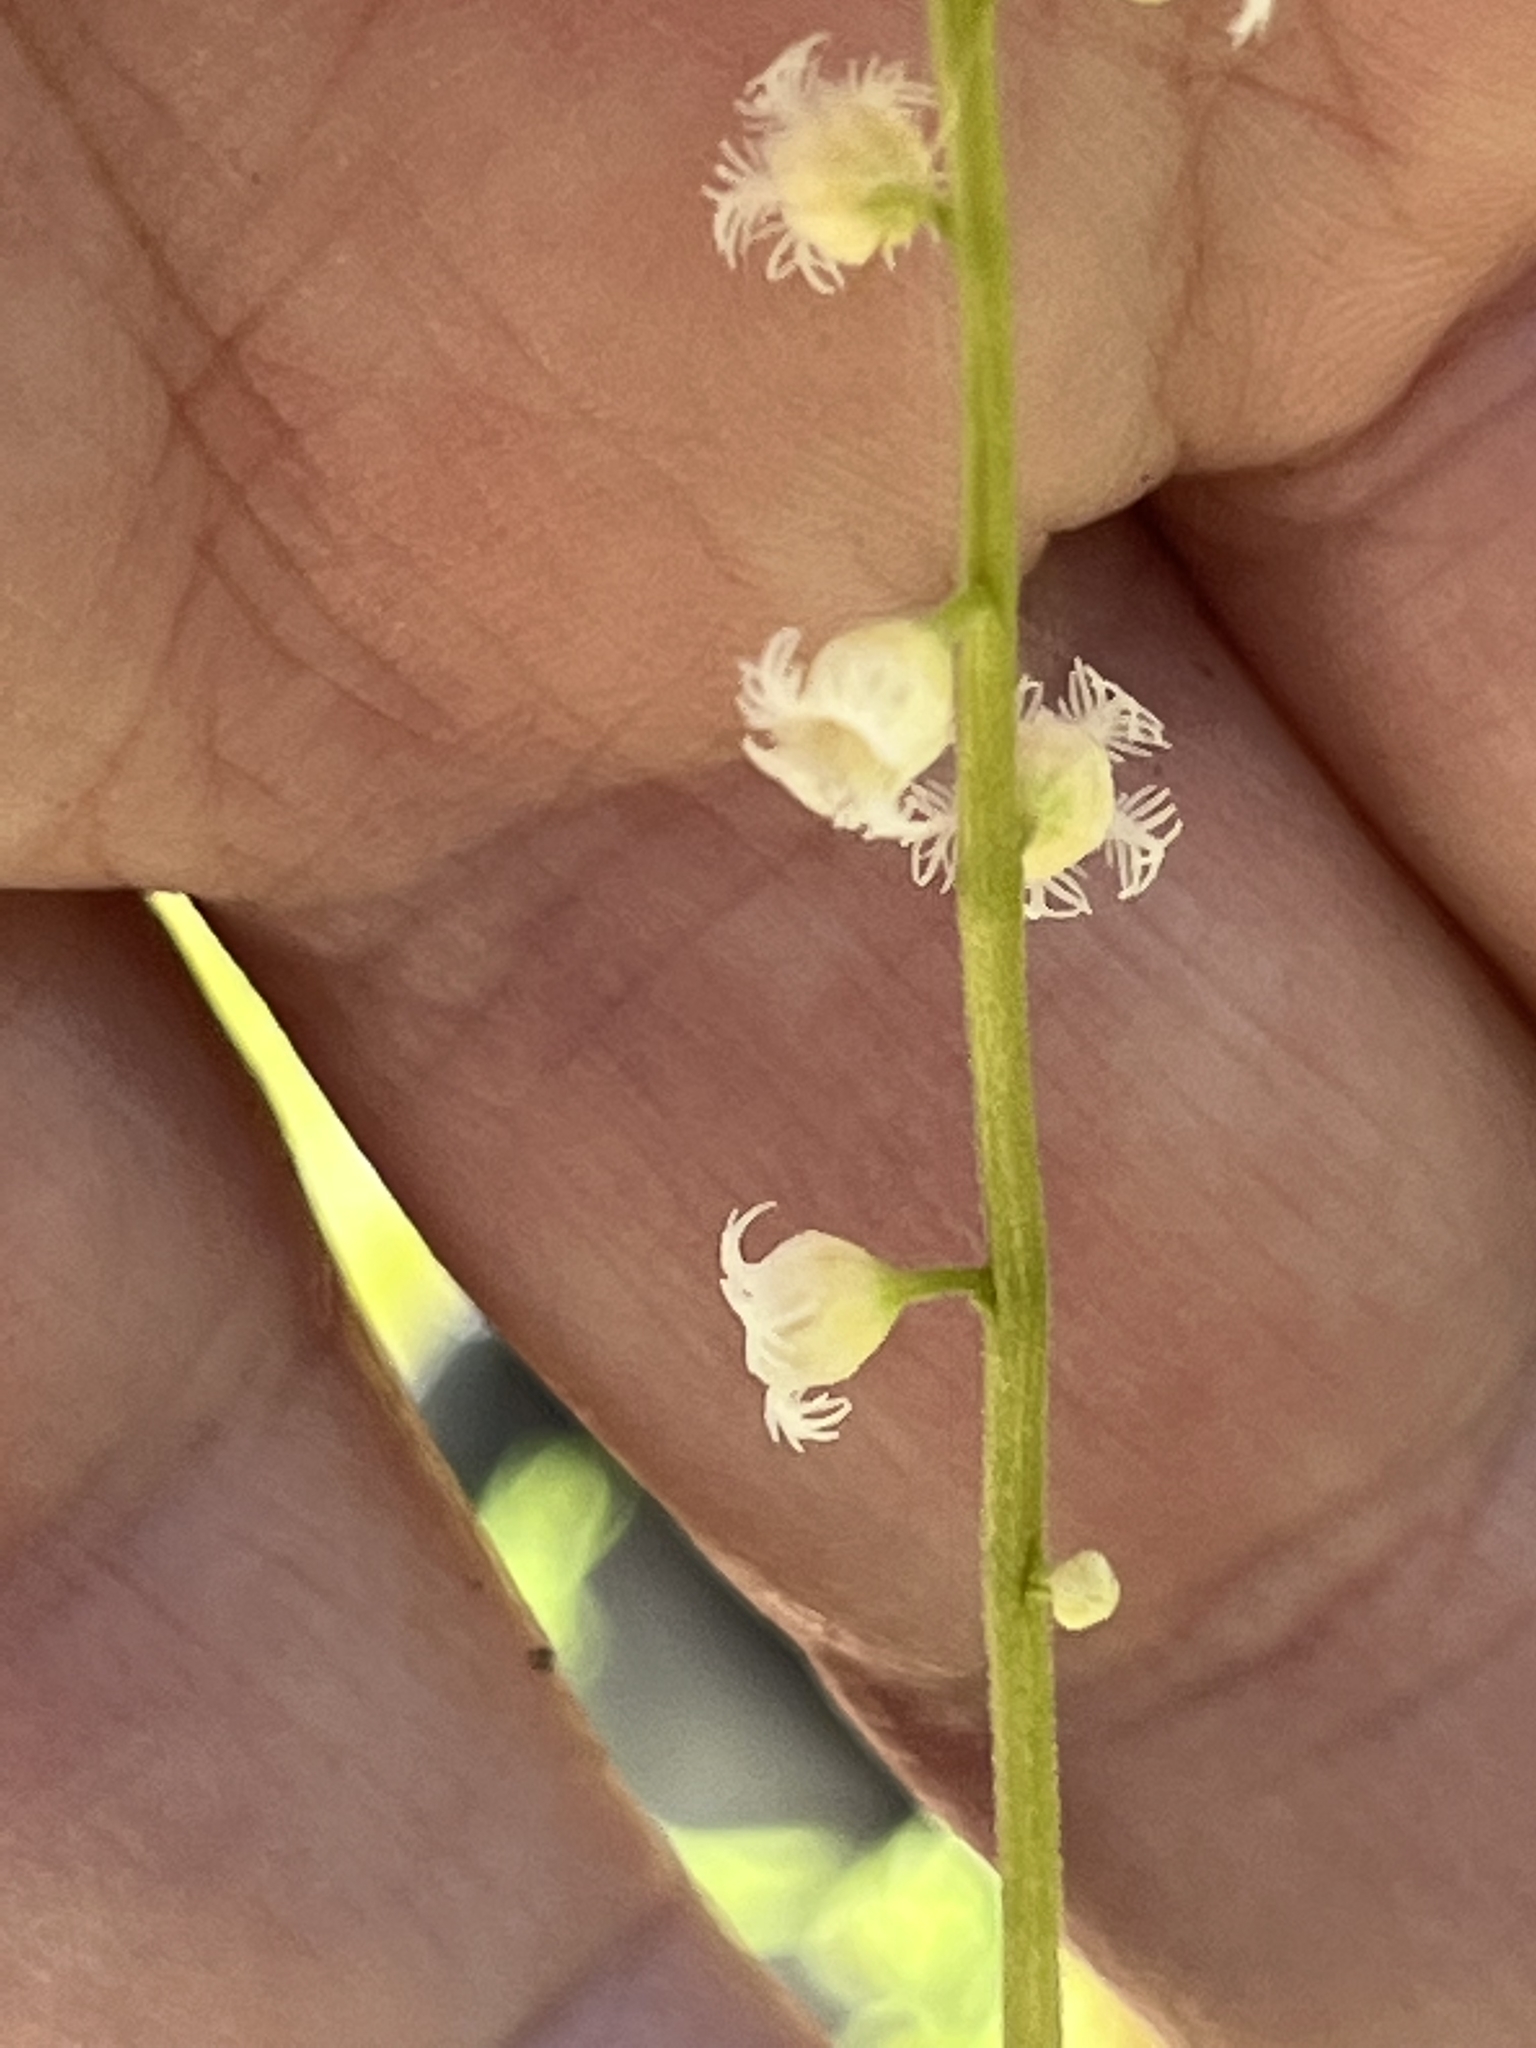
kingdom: Plantae
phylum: Tracheophyta
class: Magnoliopsida
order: Saxifragales
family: Saxifragaceae
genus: Mitella
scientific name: Mitella diphylla
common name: Coolwort
